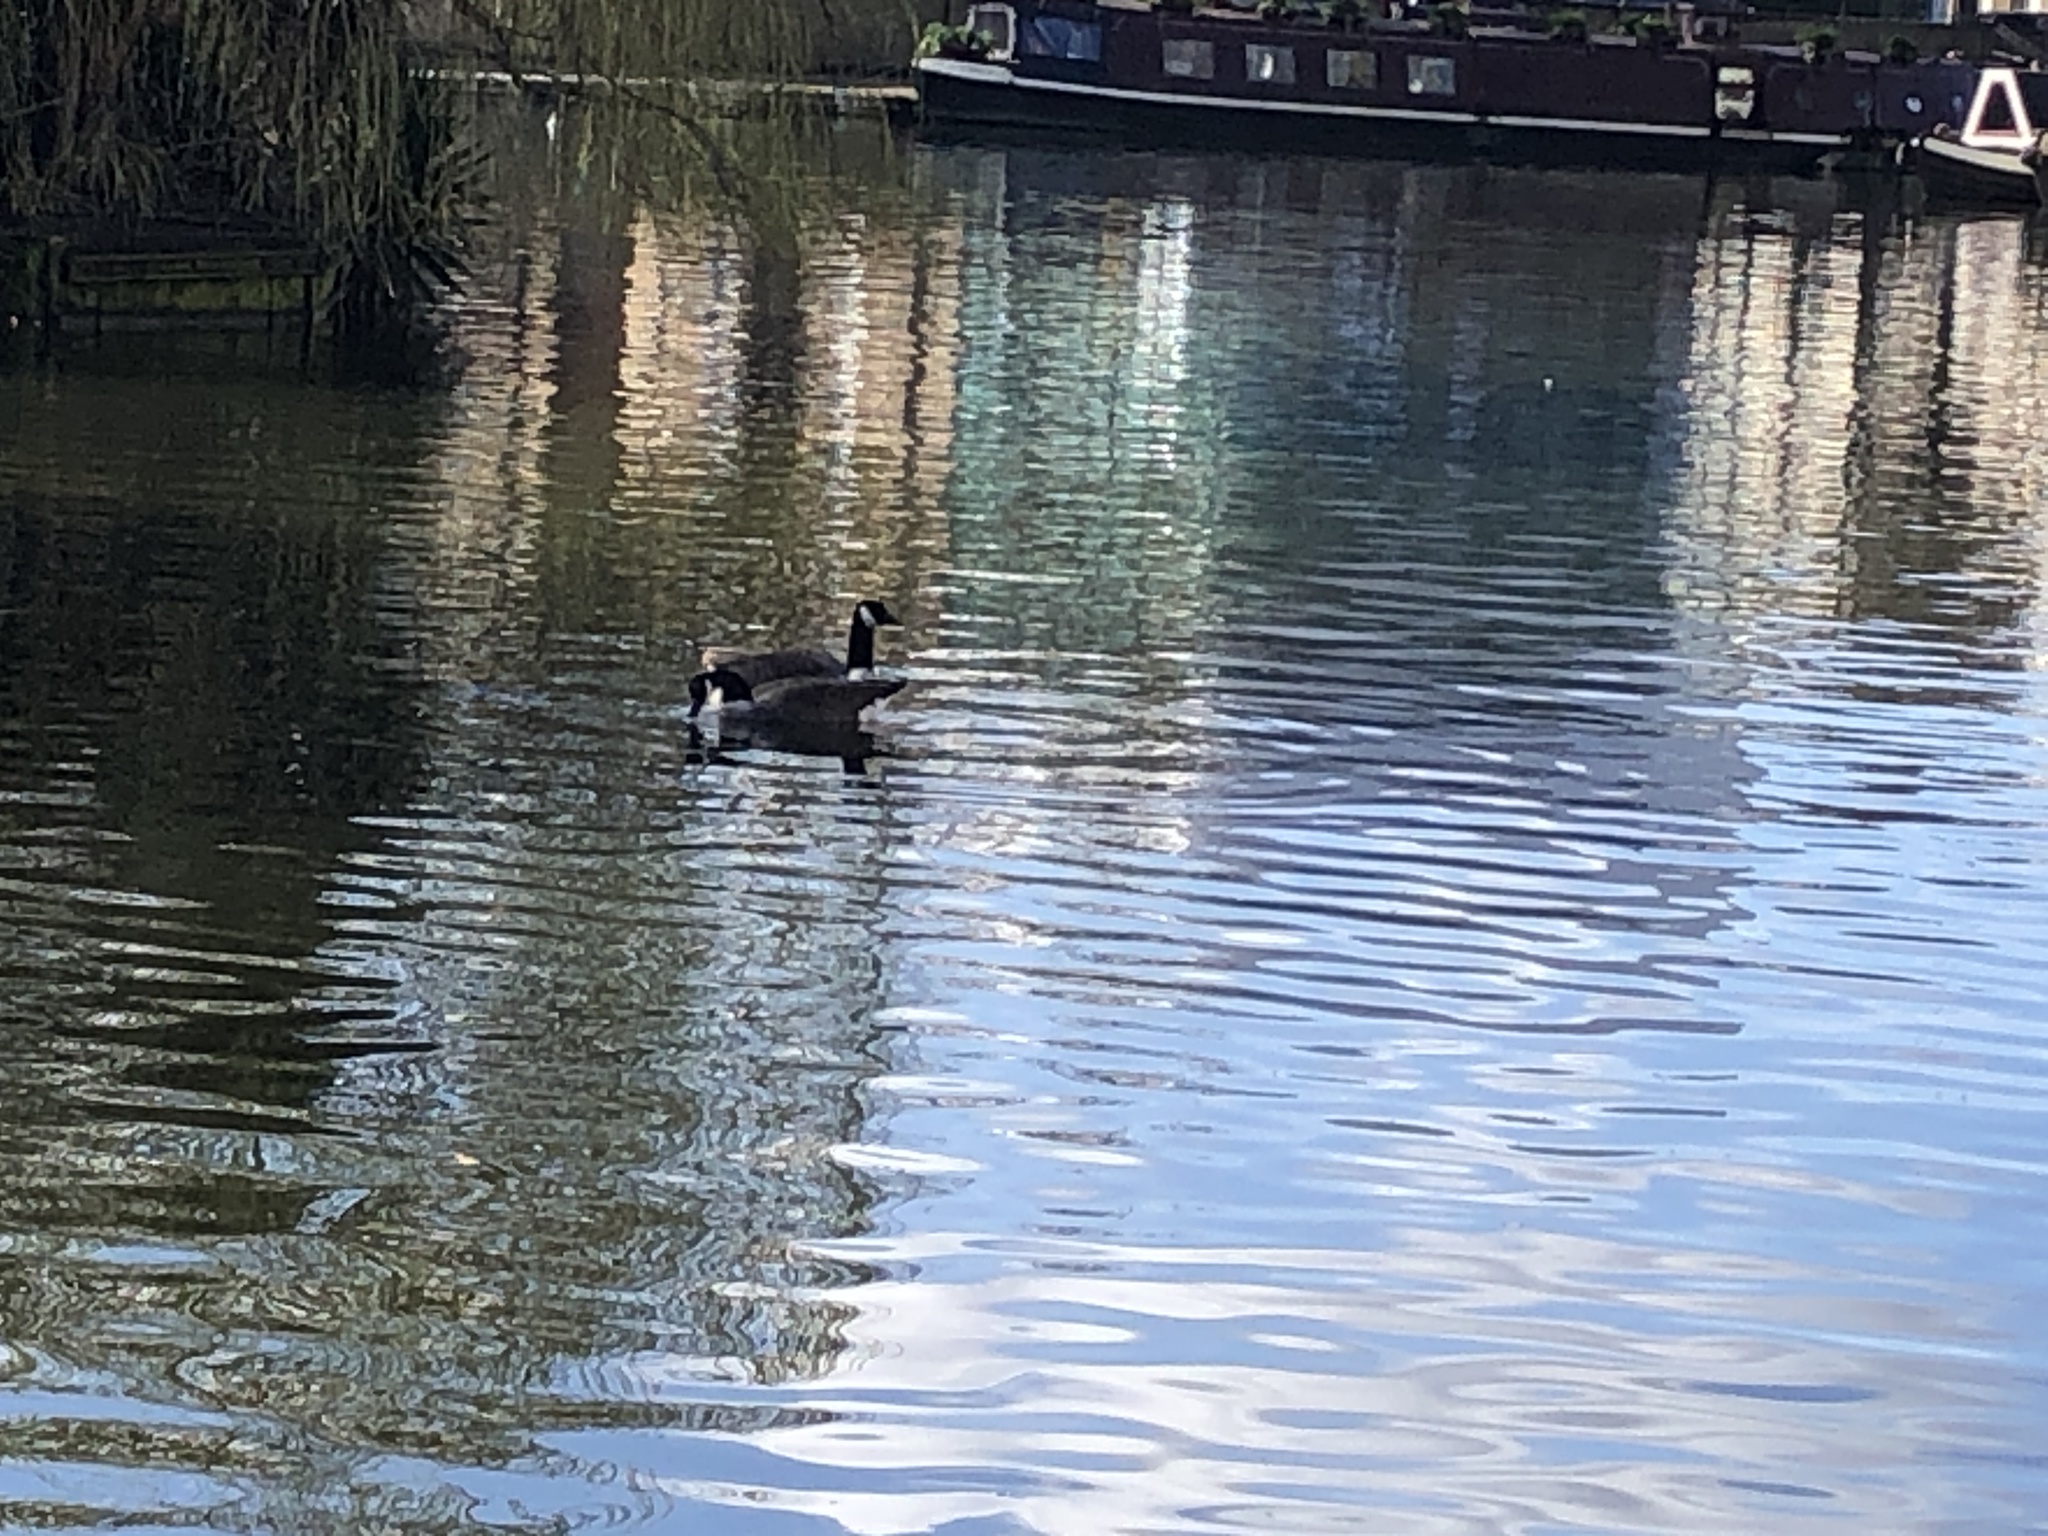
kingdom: Animalia
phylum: Chordata
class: Aves
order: Anseriformes
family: Anatidae
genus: Branta
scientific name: Branta canadensis
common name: Canada goose
